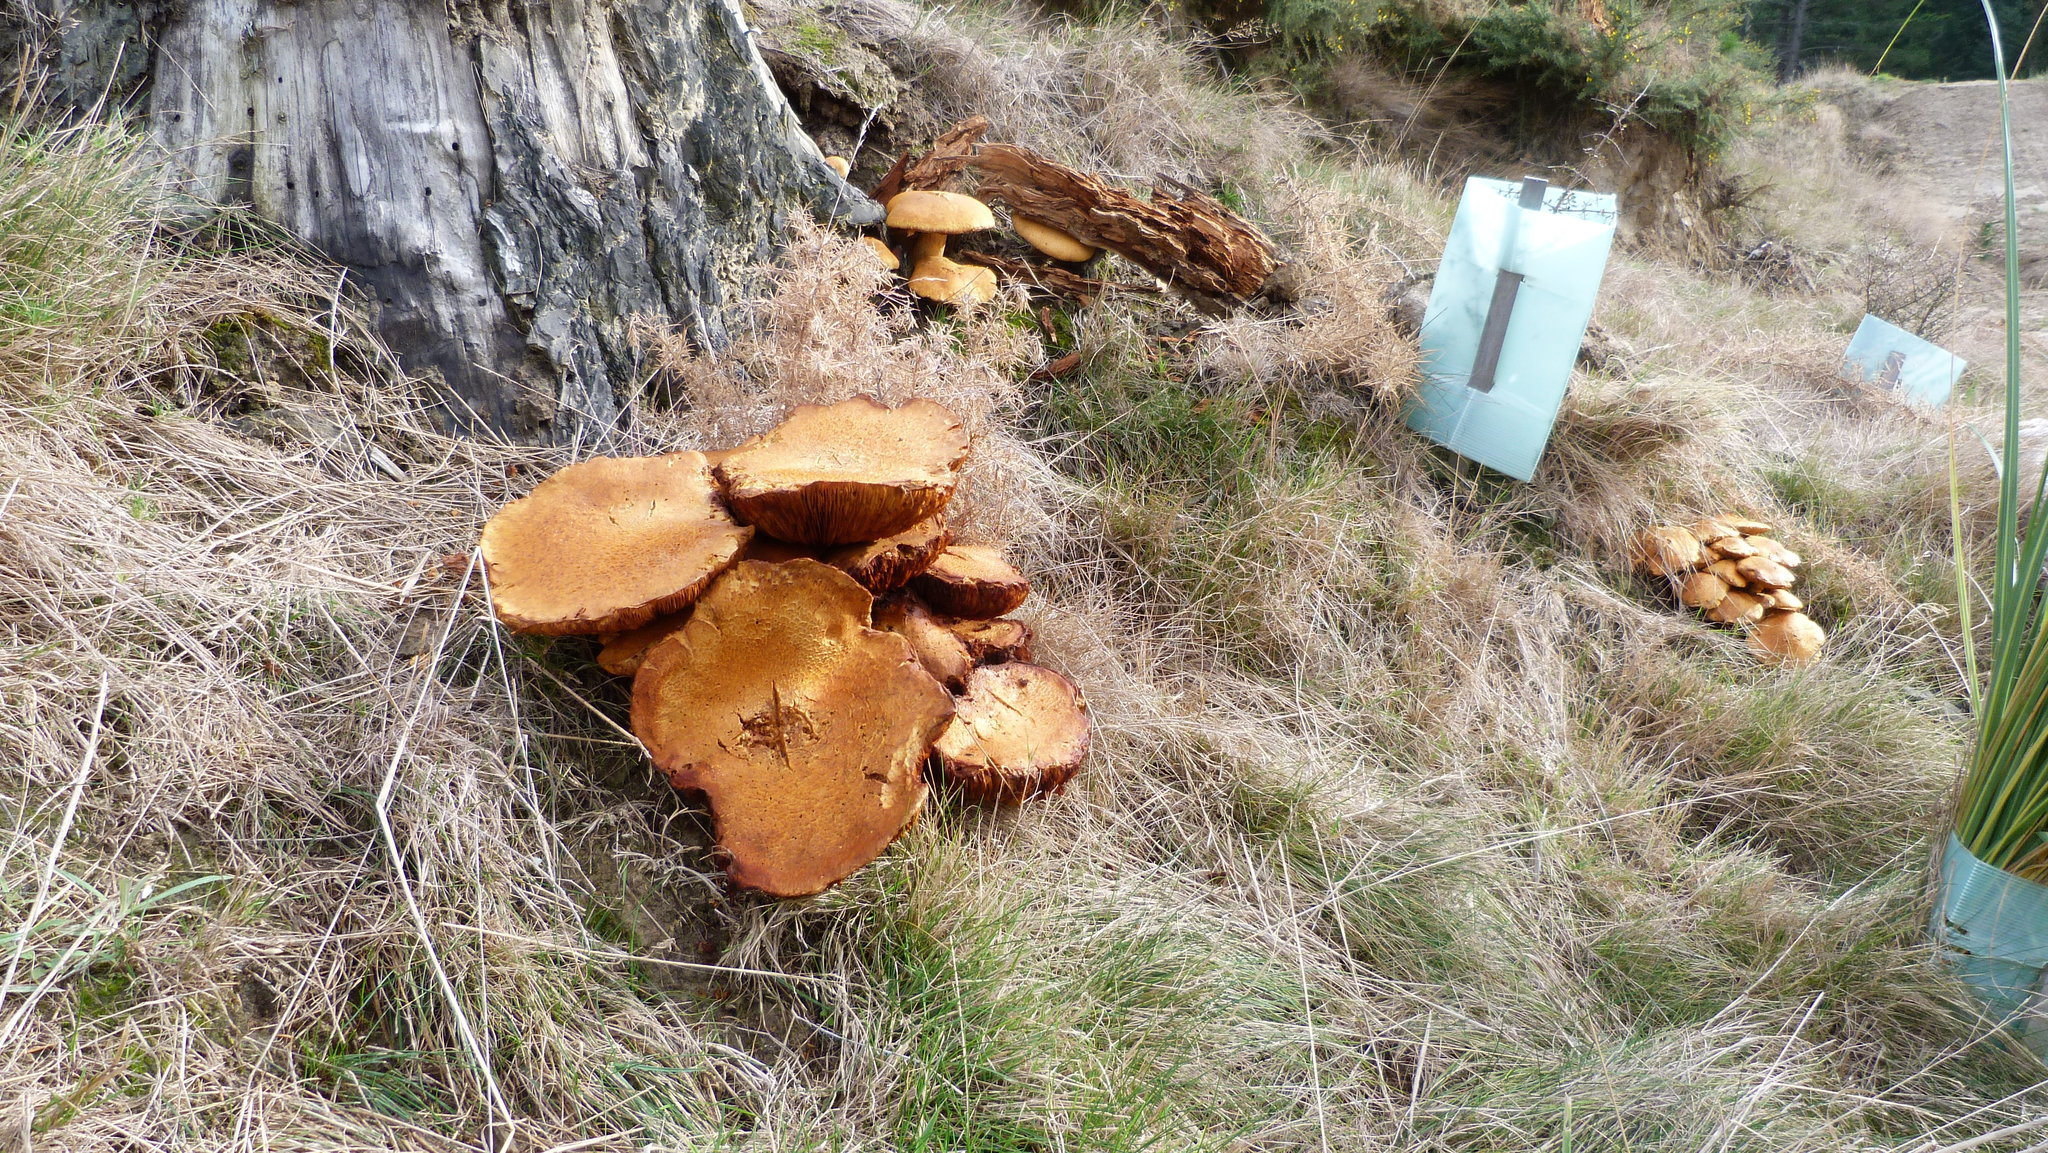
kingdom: Fungi
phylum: Basidiomycota
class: Agaricomycetes
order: Agaricales
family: Hymenogastraceae
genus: Gymnopilus
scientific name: Gymnopilus junonius
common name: Spectacular rustgill
